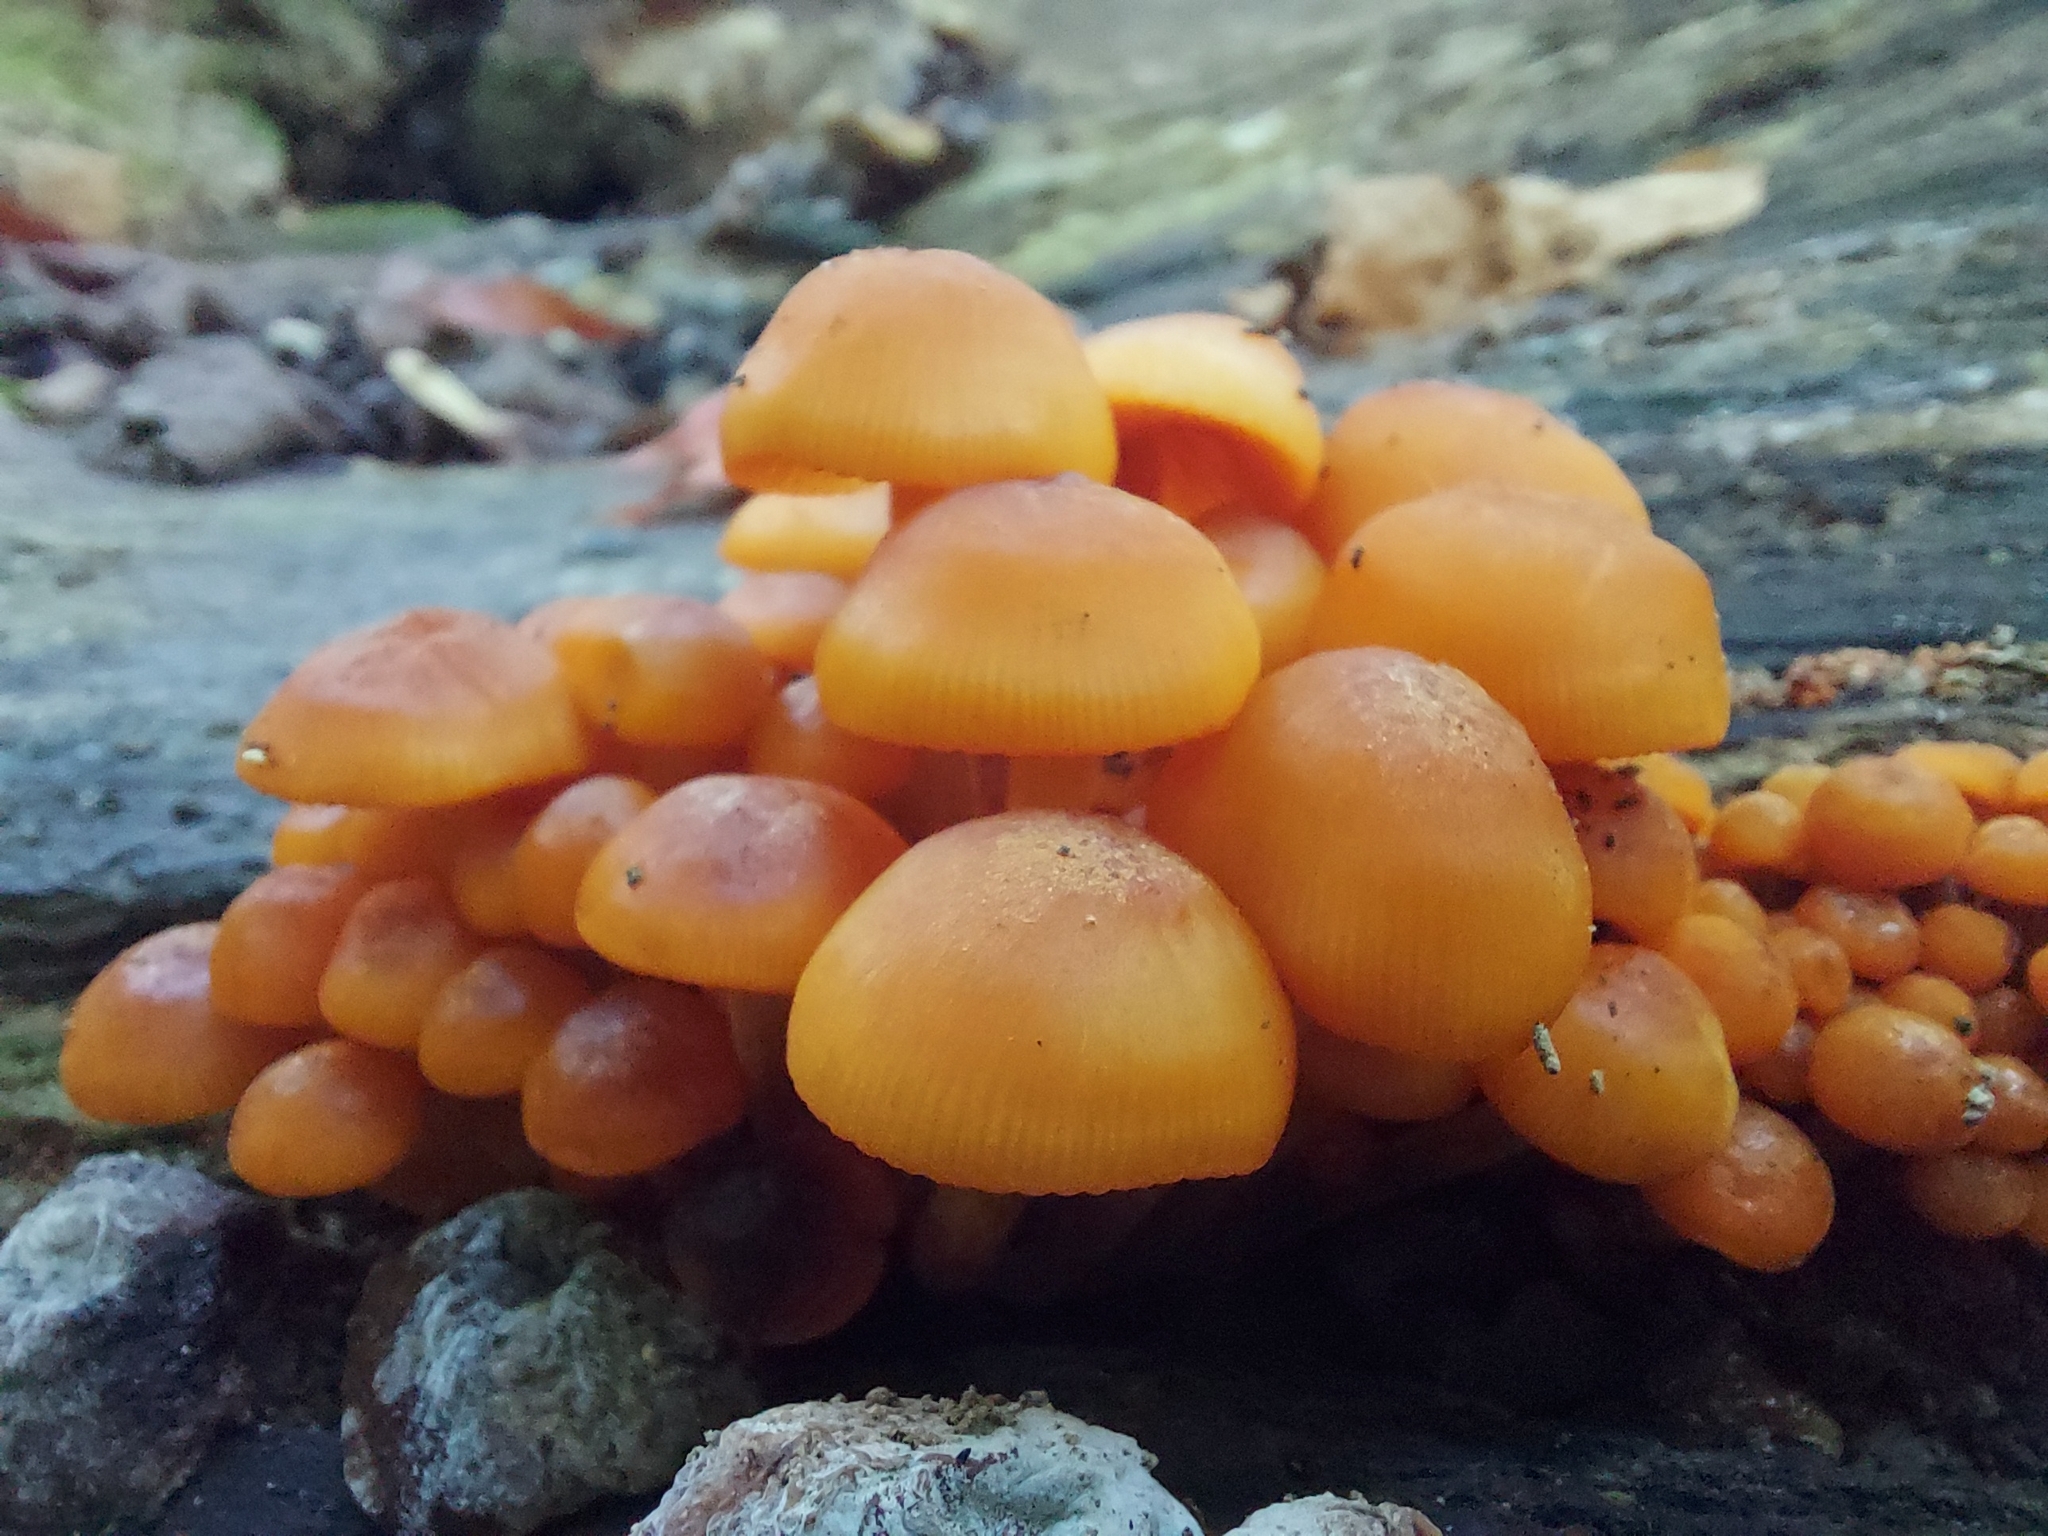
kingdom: Fungi
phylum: Basidiomycota
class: Agaricomycetes
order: Agaricales
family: Mycenaceae
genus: Mycena
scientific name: Mycena leaiana
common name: Orange mycena
